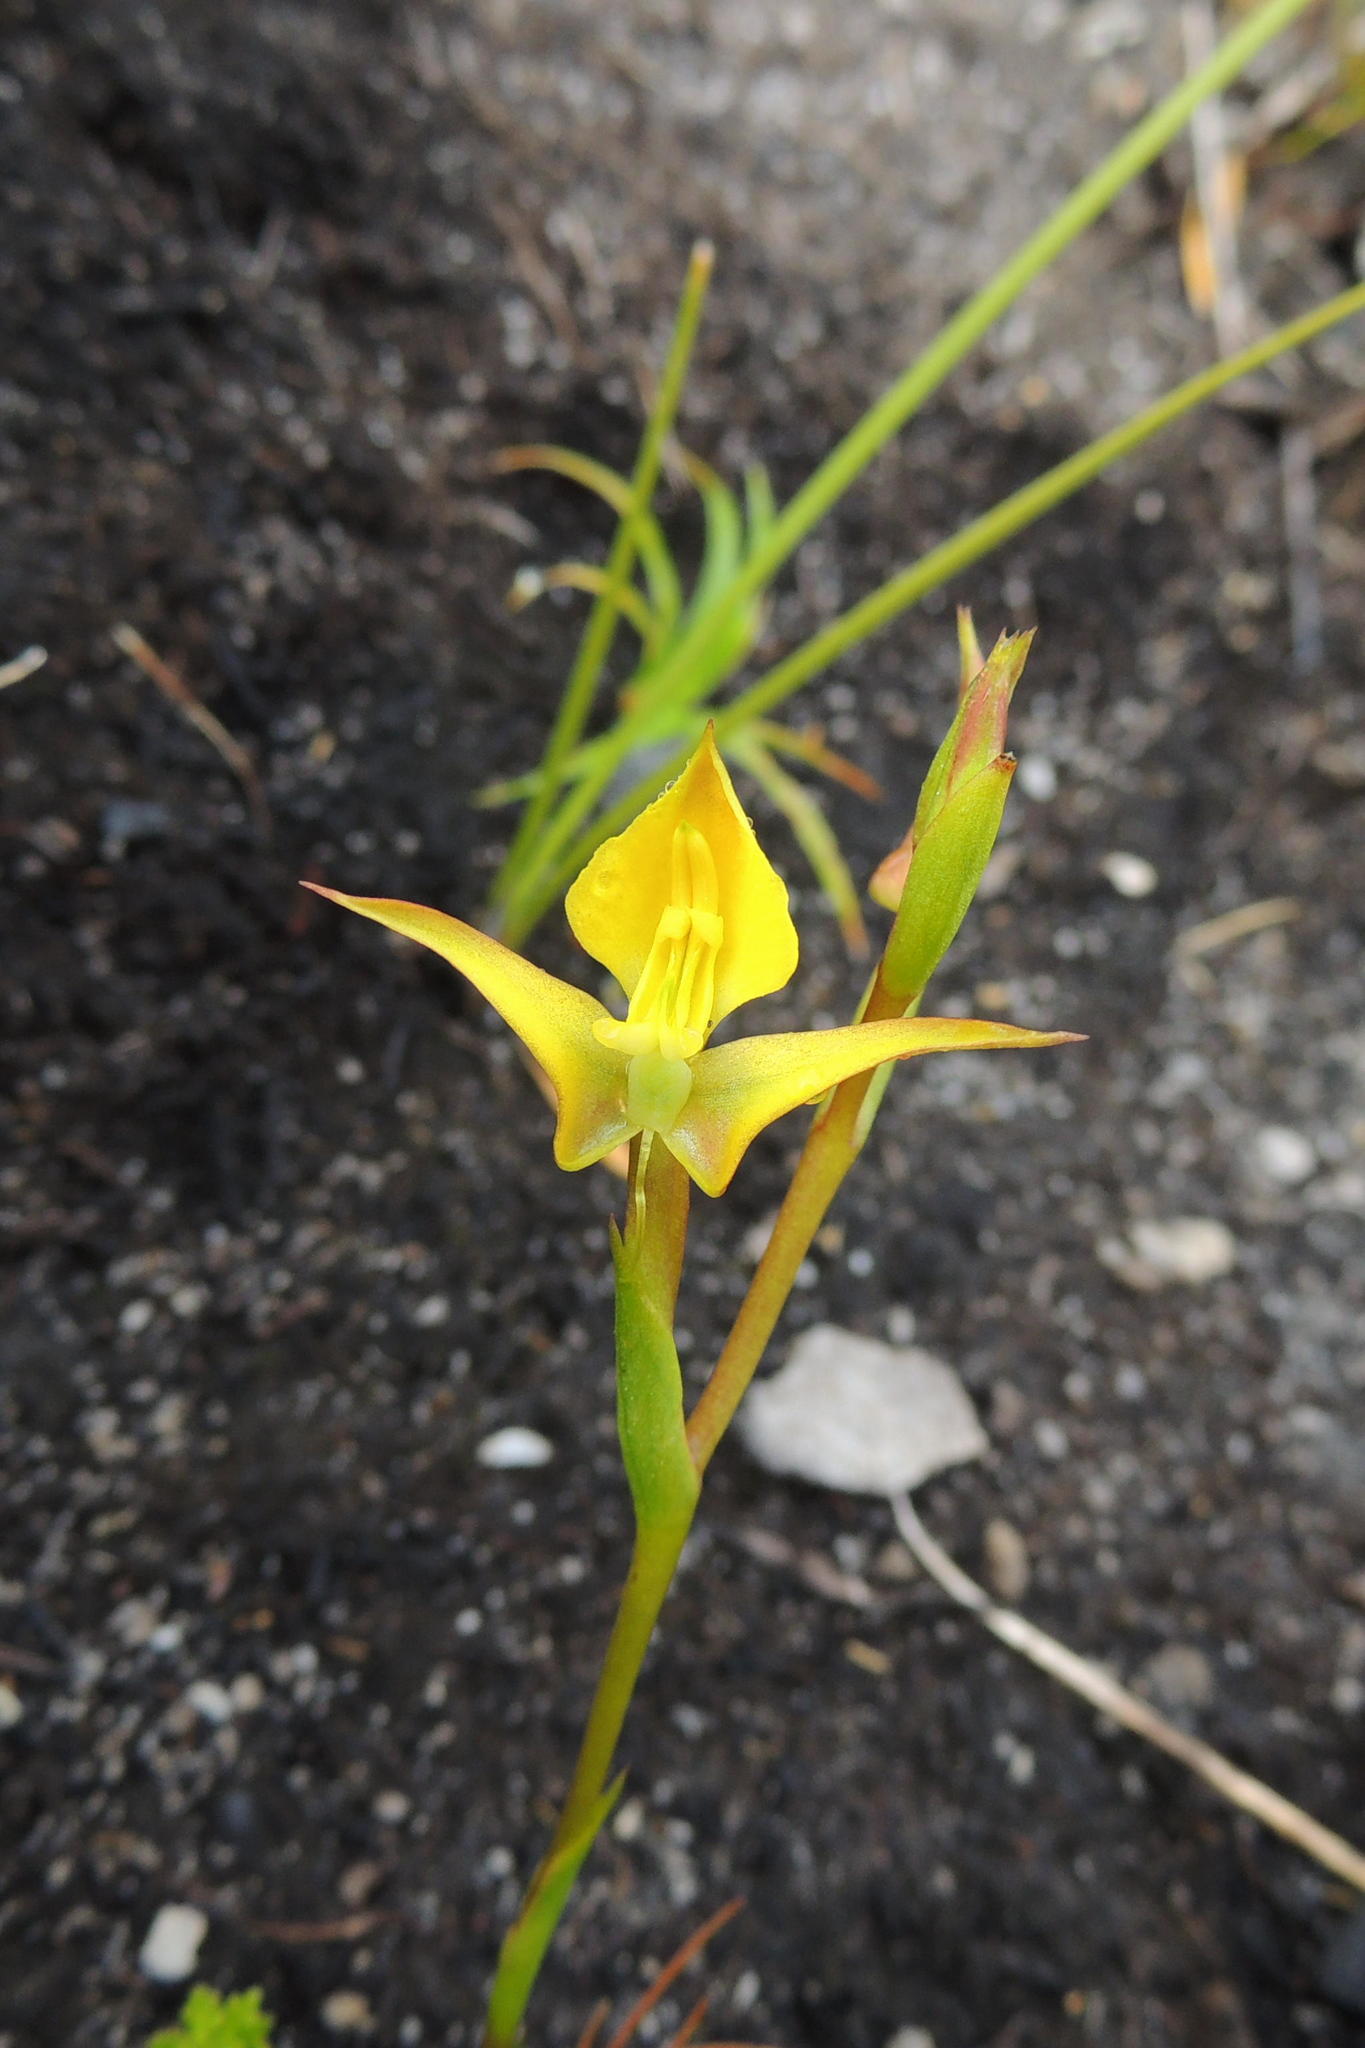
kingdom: Plantae
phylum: Tracheophyta
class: Liliopsida
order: Asparagales
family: Orchidaceae
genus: Disa
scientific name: Disa tenuifolia
